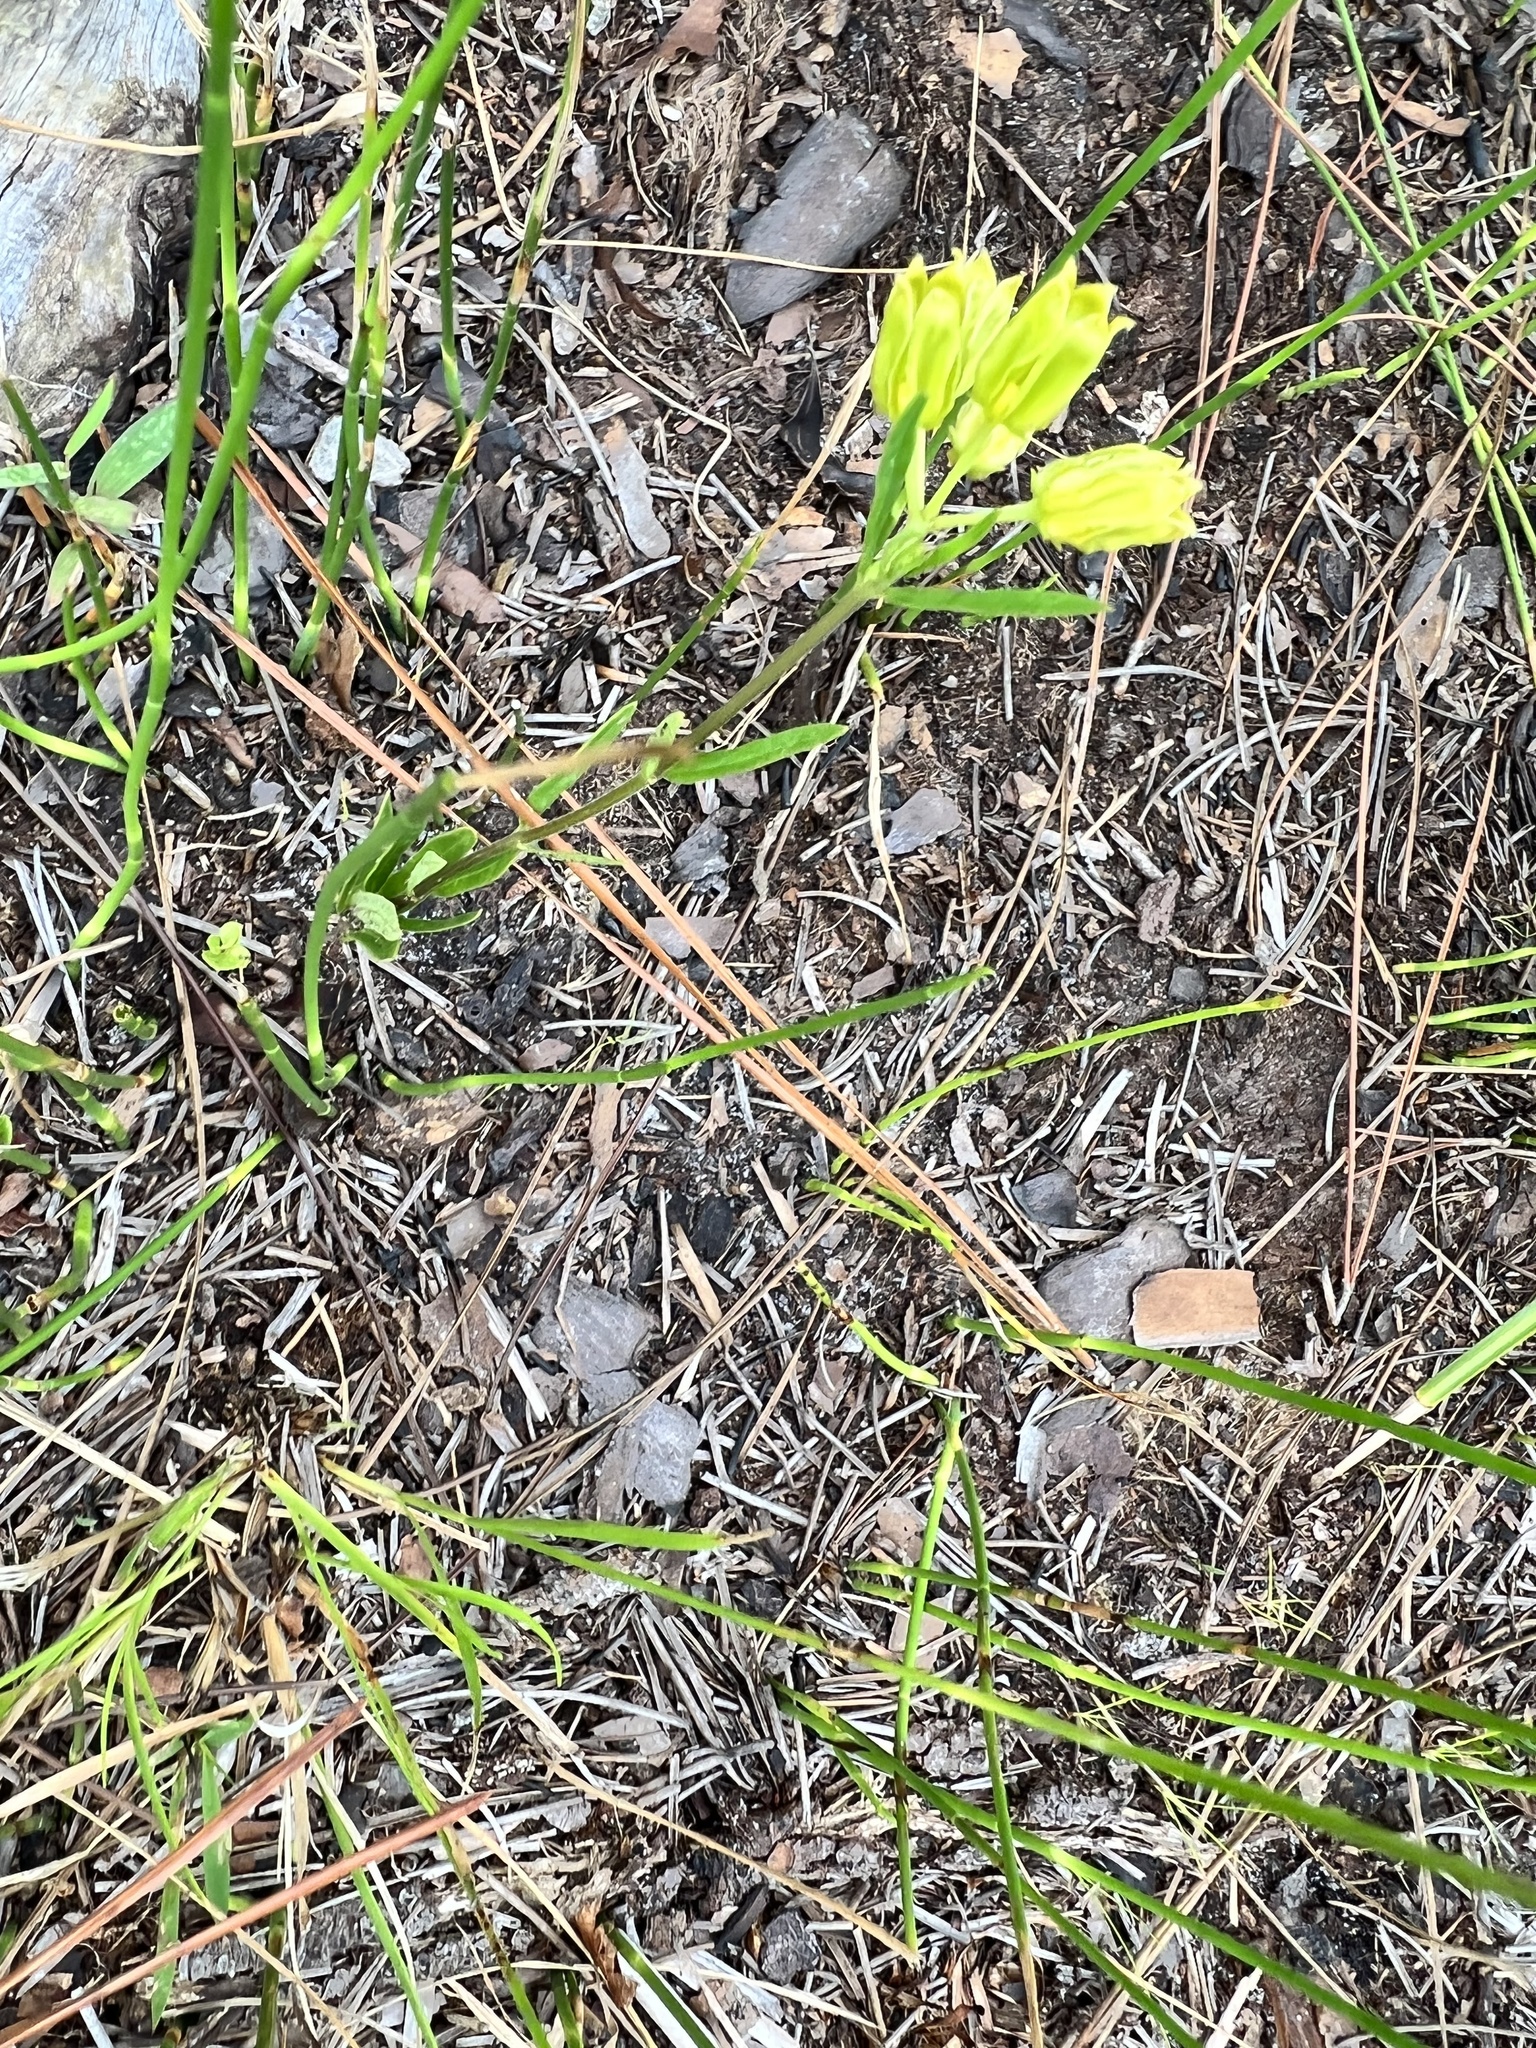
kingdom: Plantae
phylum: Tracheophyta
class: Magnoliopsida
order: Gentianales
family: Apocynaceae
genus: Asclepias
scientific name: Asclepias pedicellata
